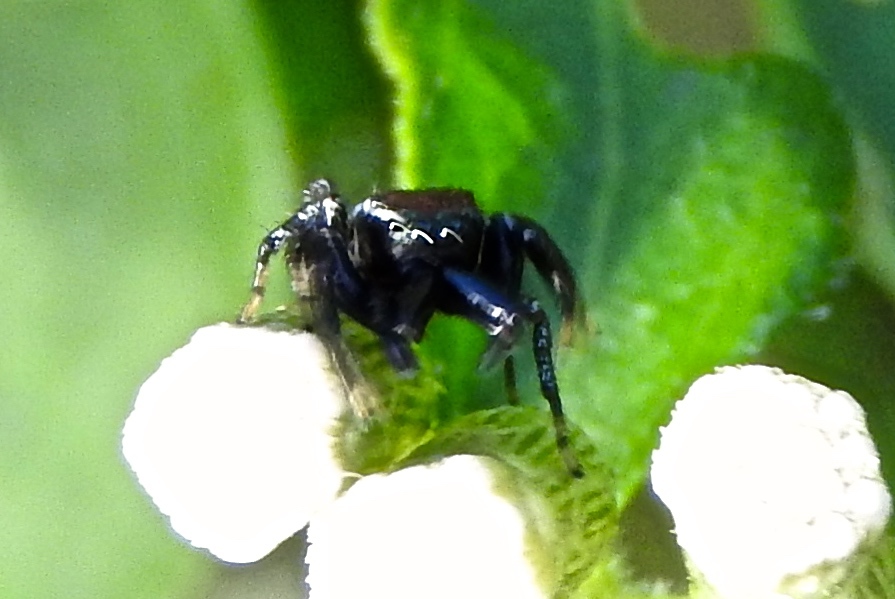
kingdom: Animalia
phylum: Arthropoda
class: Arachnida
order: Araneae
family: Salticidae
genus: Messua
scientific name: Messua
